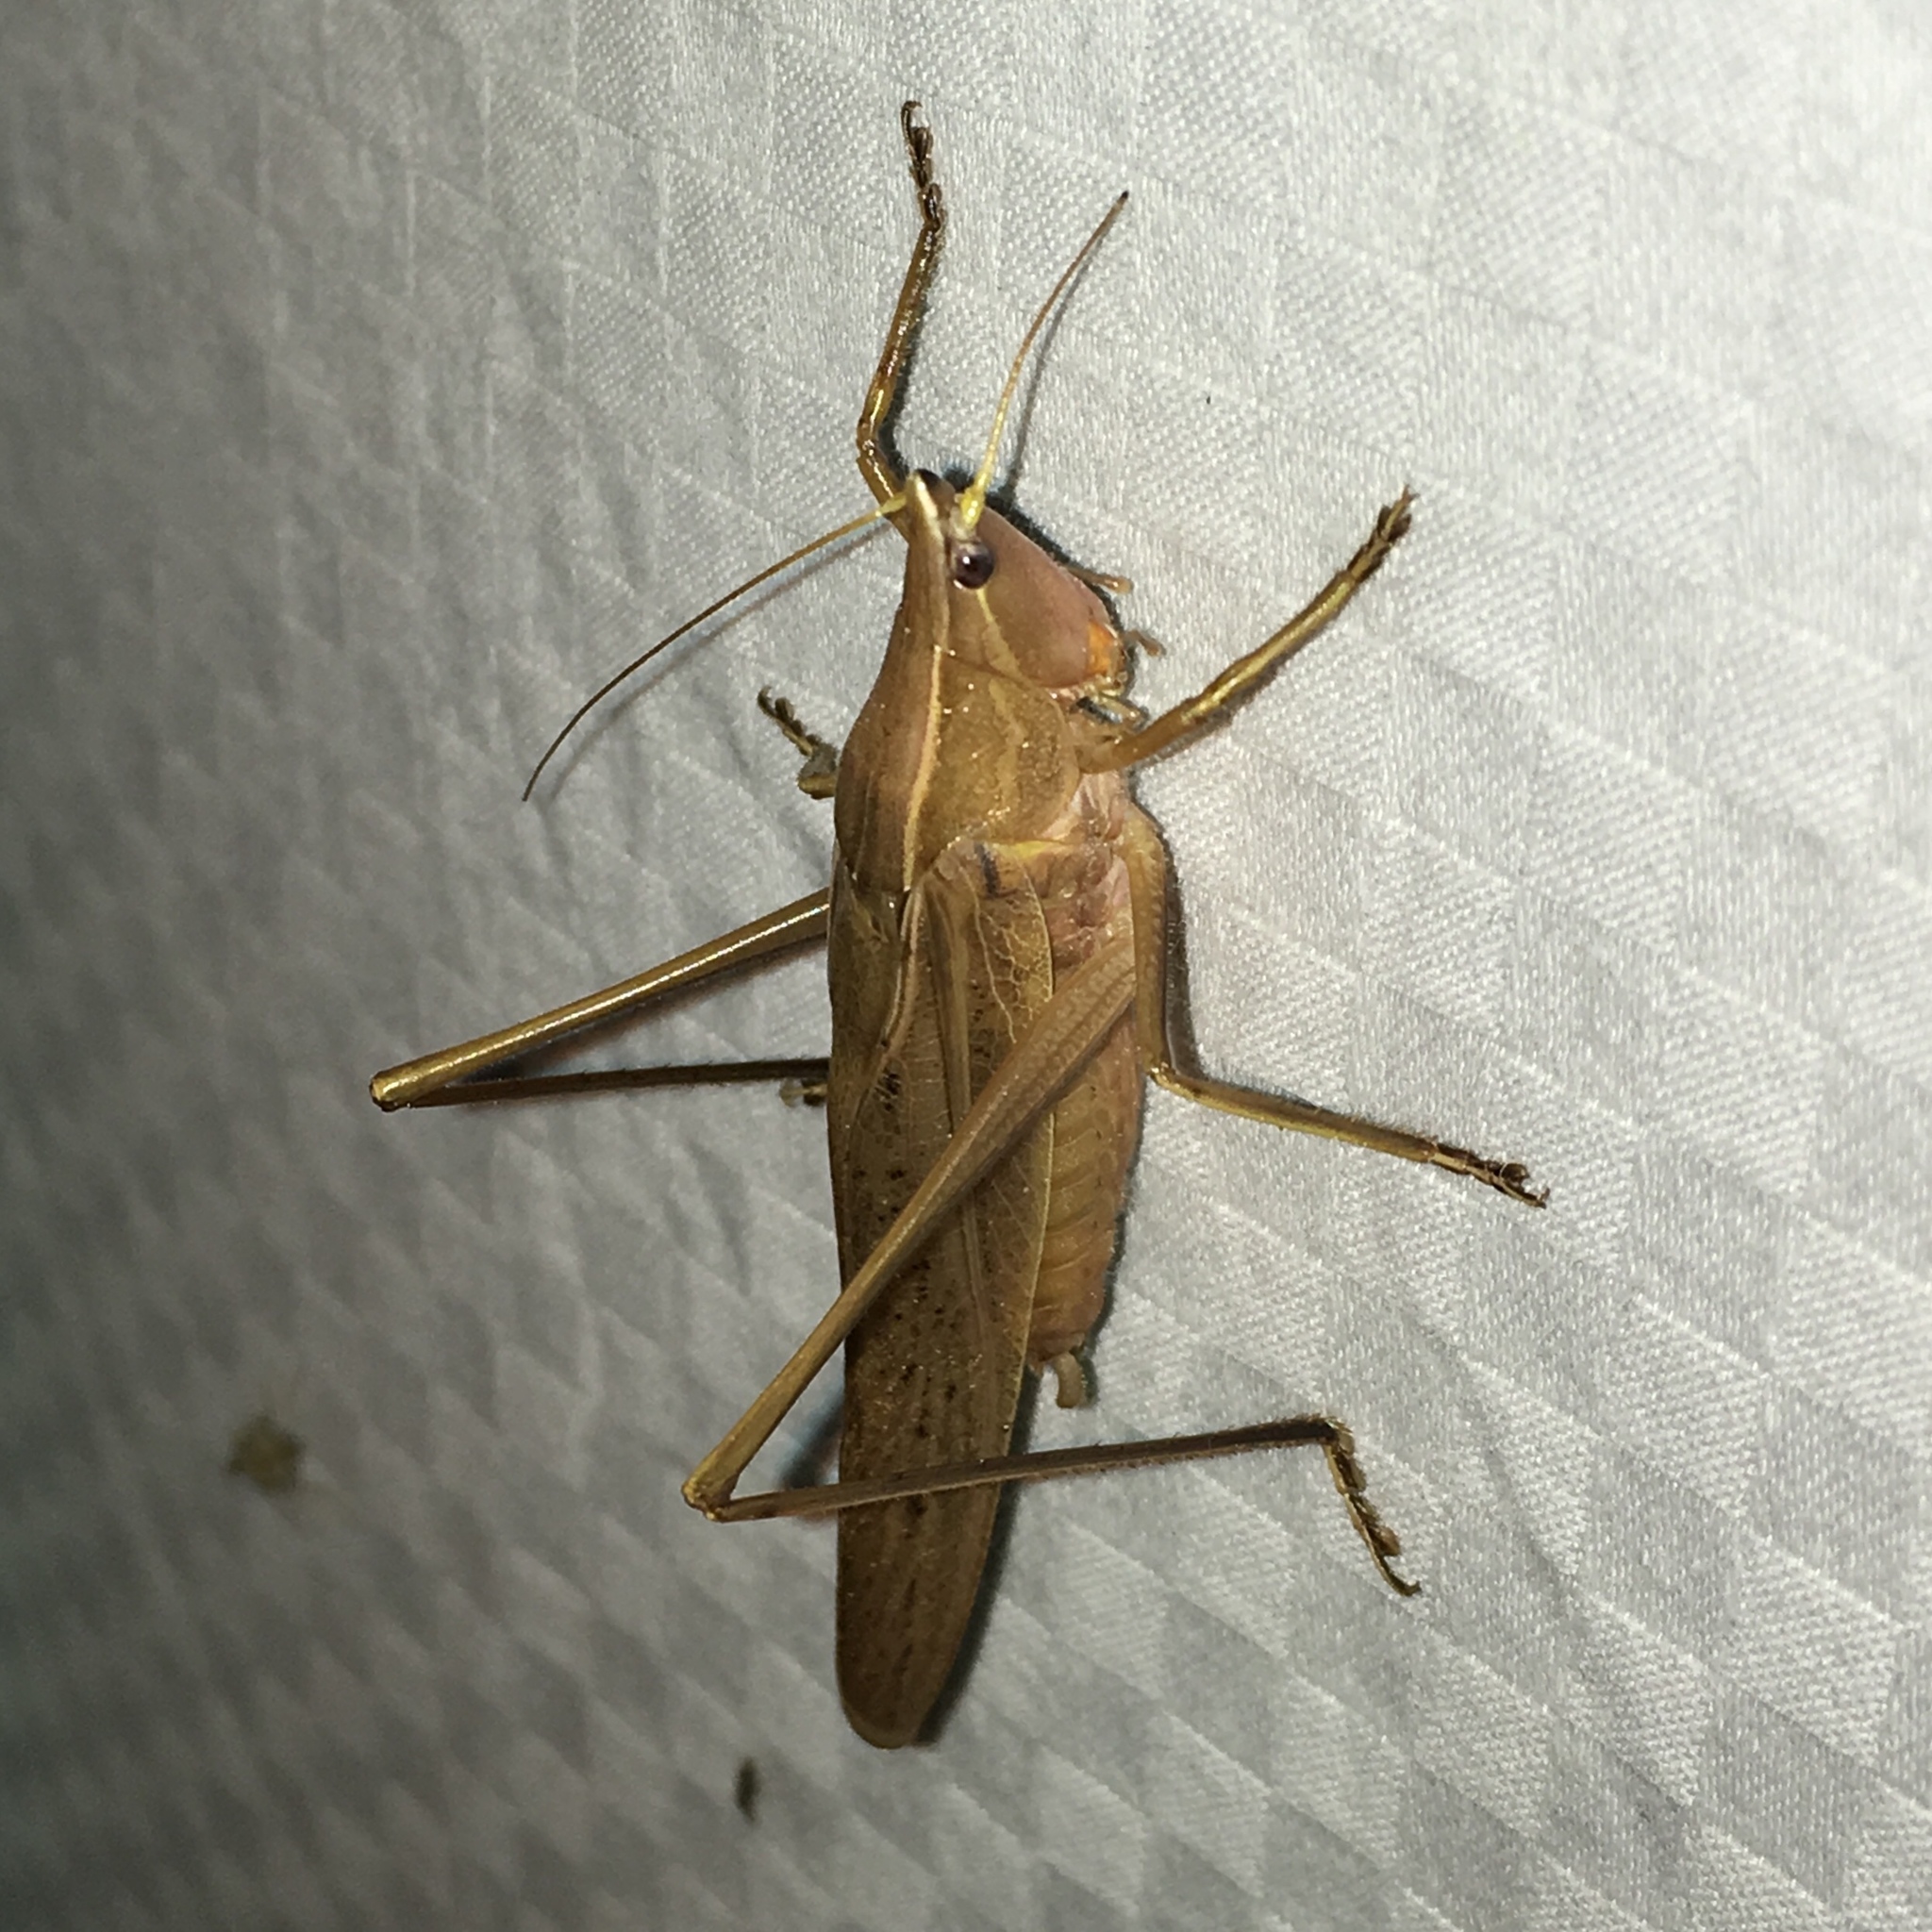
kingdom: Animalia
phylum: Arthropoda
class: Insecta
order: Orthoptera
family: Tettigoniidae
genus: Neoconocephalus
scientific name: Neoconocephalus ensiger
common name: Swordbearer
